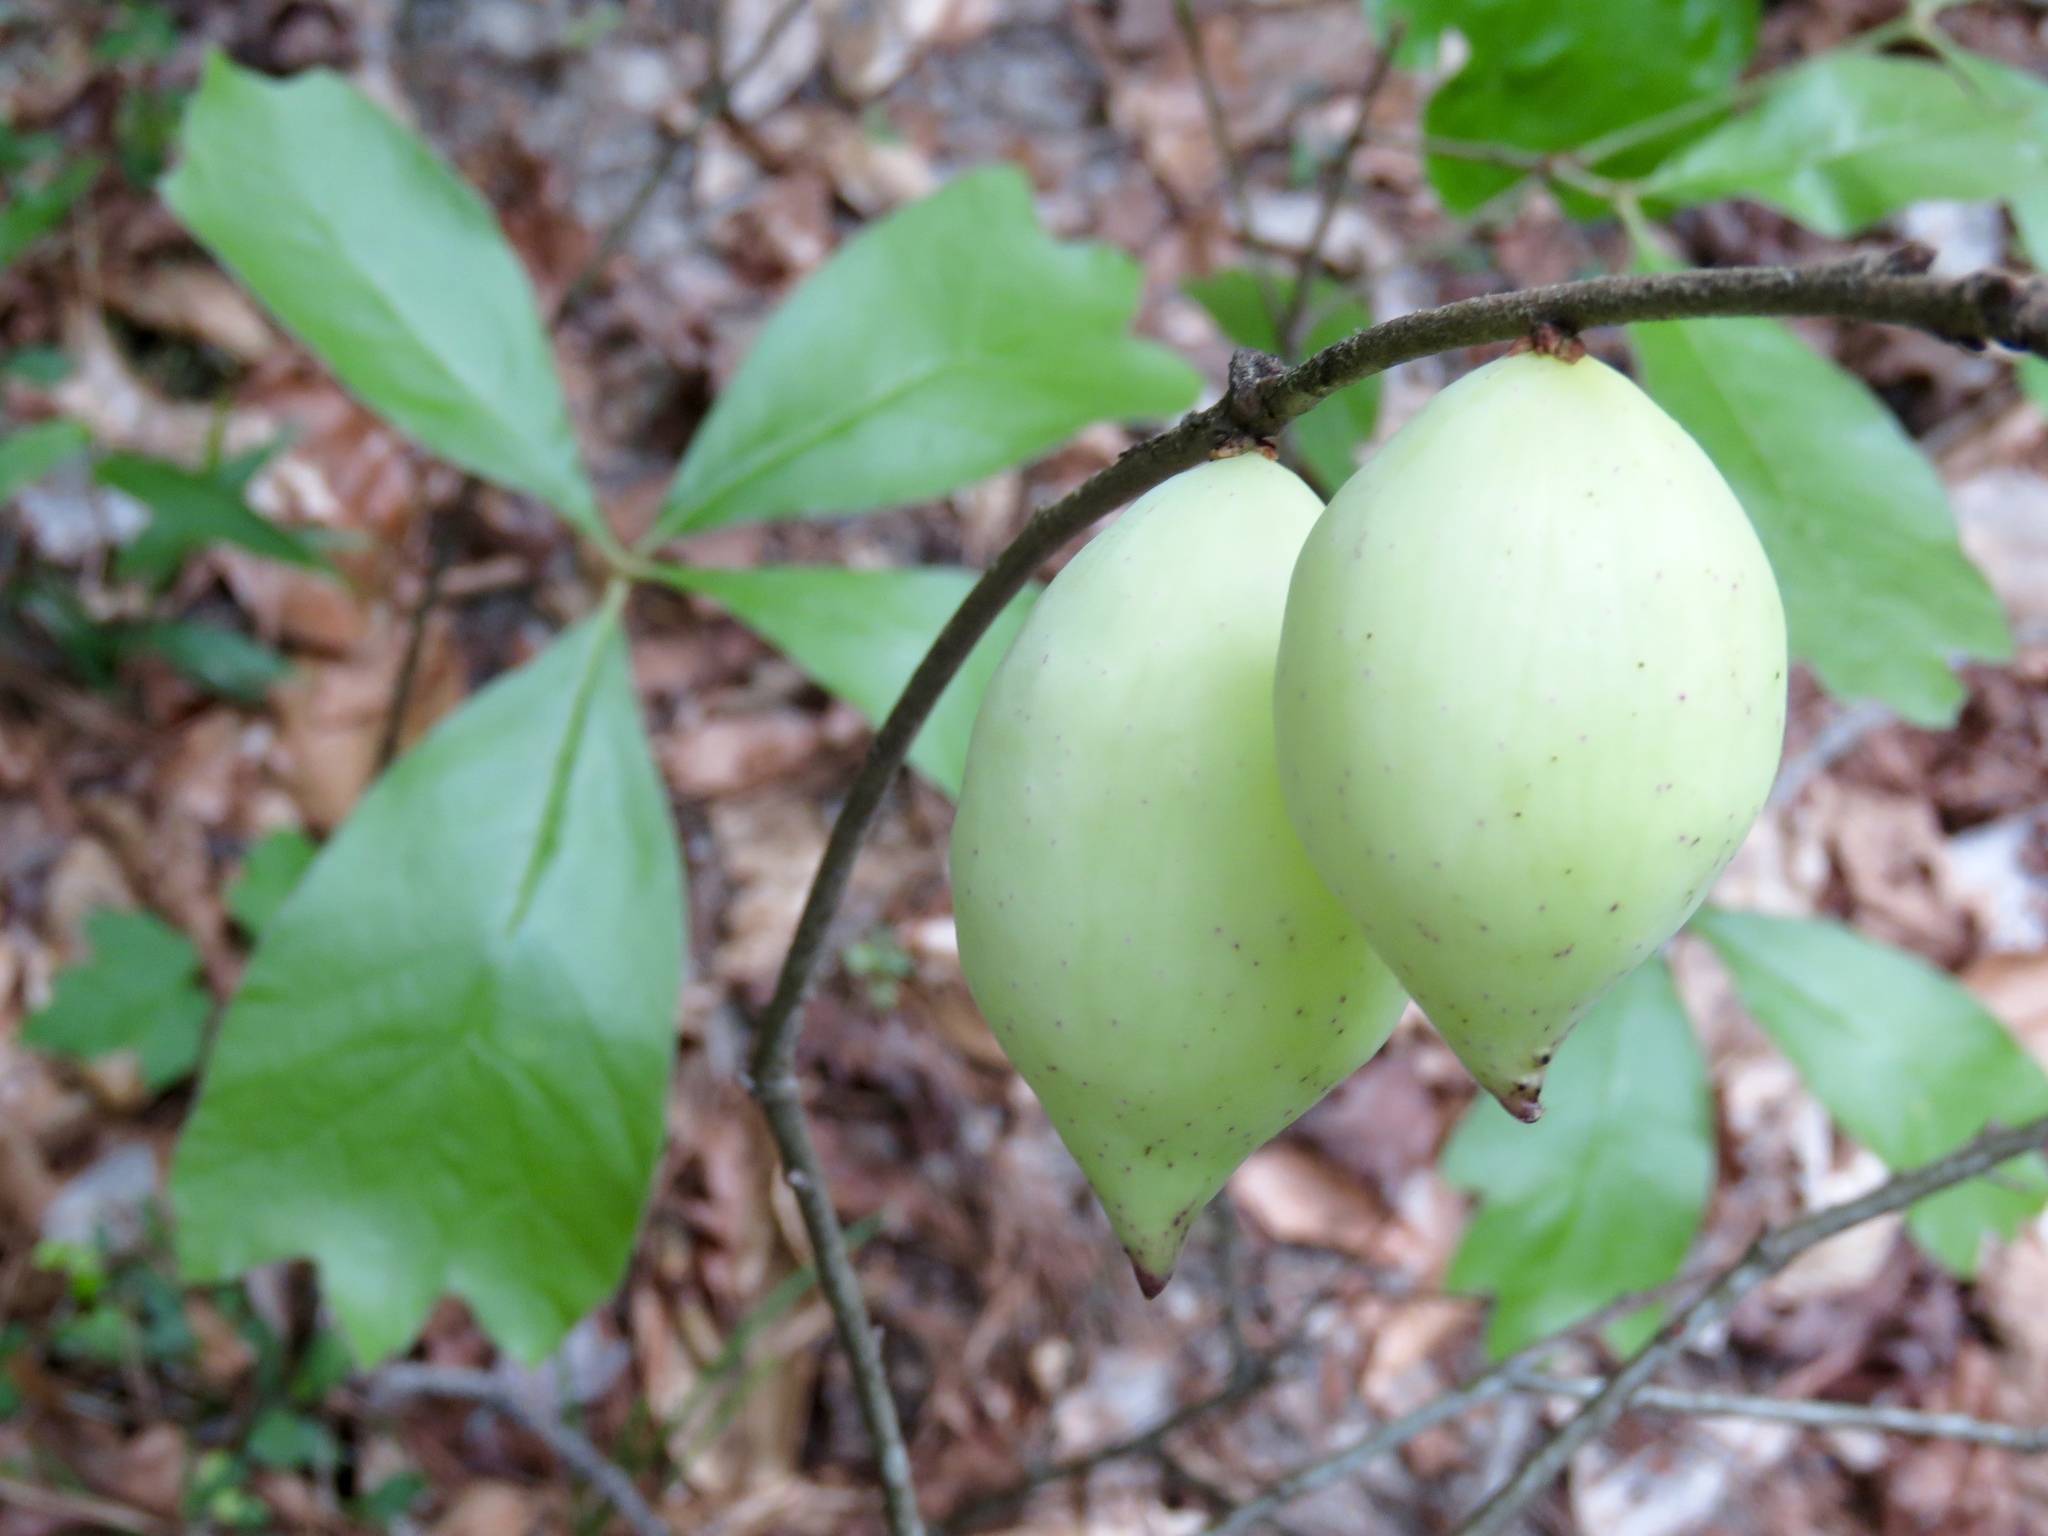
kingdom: Animalia
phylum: Arthropoda
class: Insecta
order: Hymenoptera
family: Cynipidae
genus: Amphibolips
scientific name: Amphibolips
